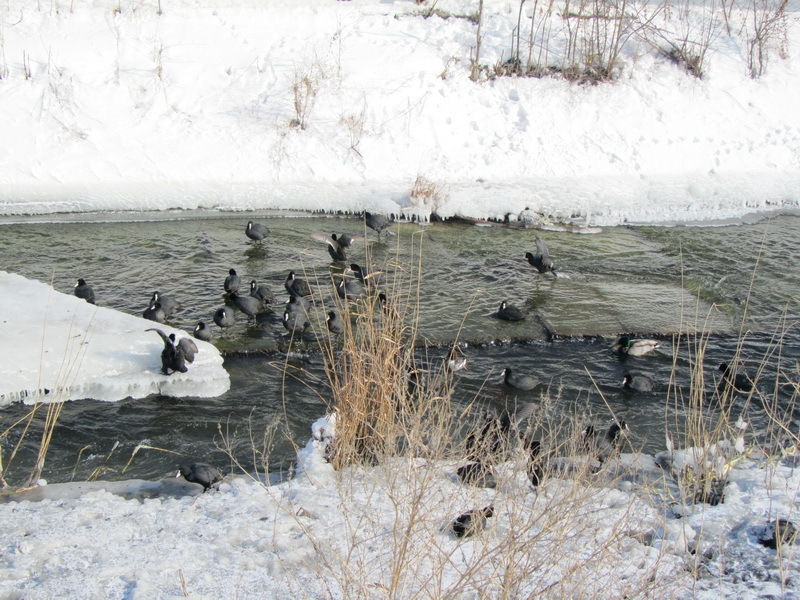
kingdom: Animalia
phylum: Chordata
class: Aves
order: Gruiformes
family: Rallidae
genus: Fulica
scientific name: Fulica atra
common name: Eurasian coot
